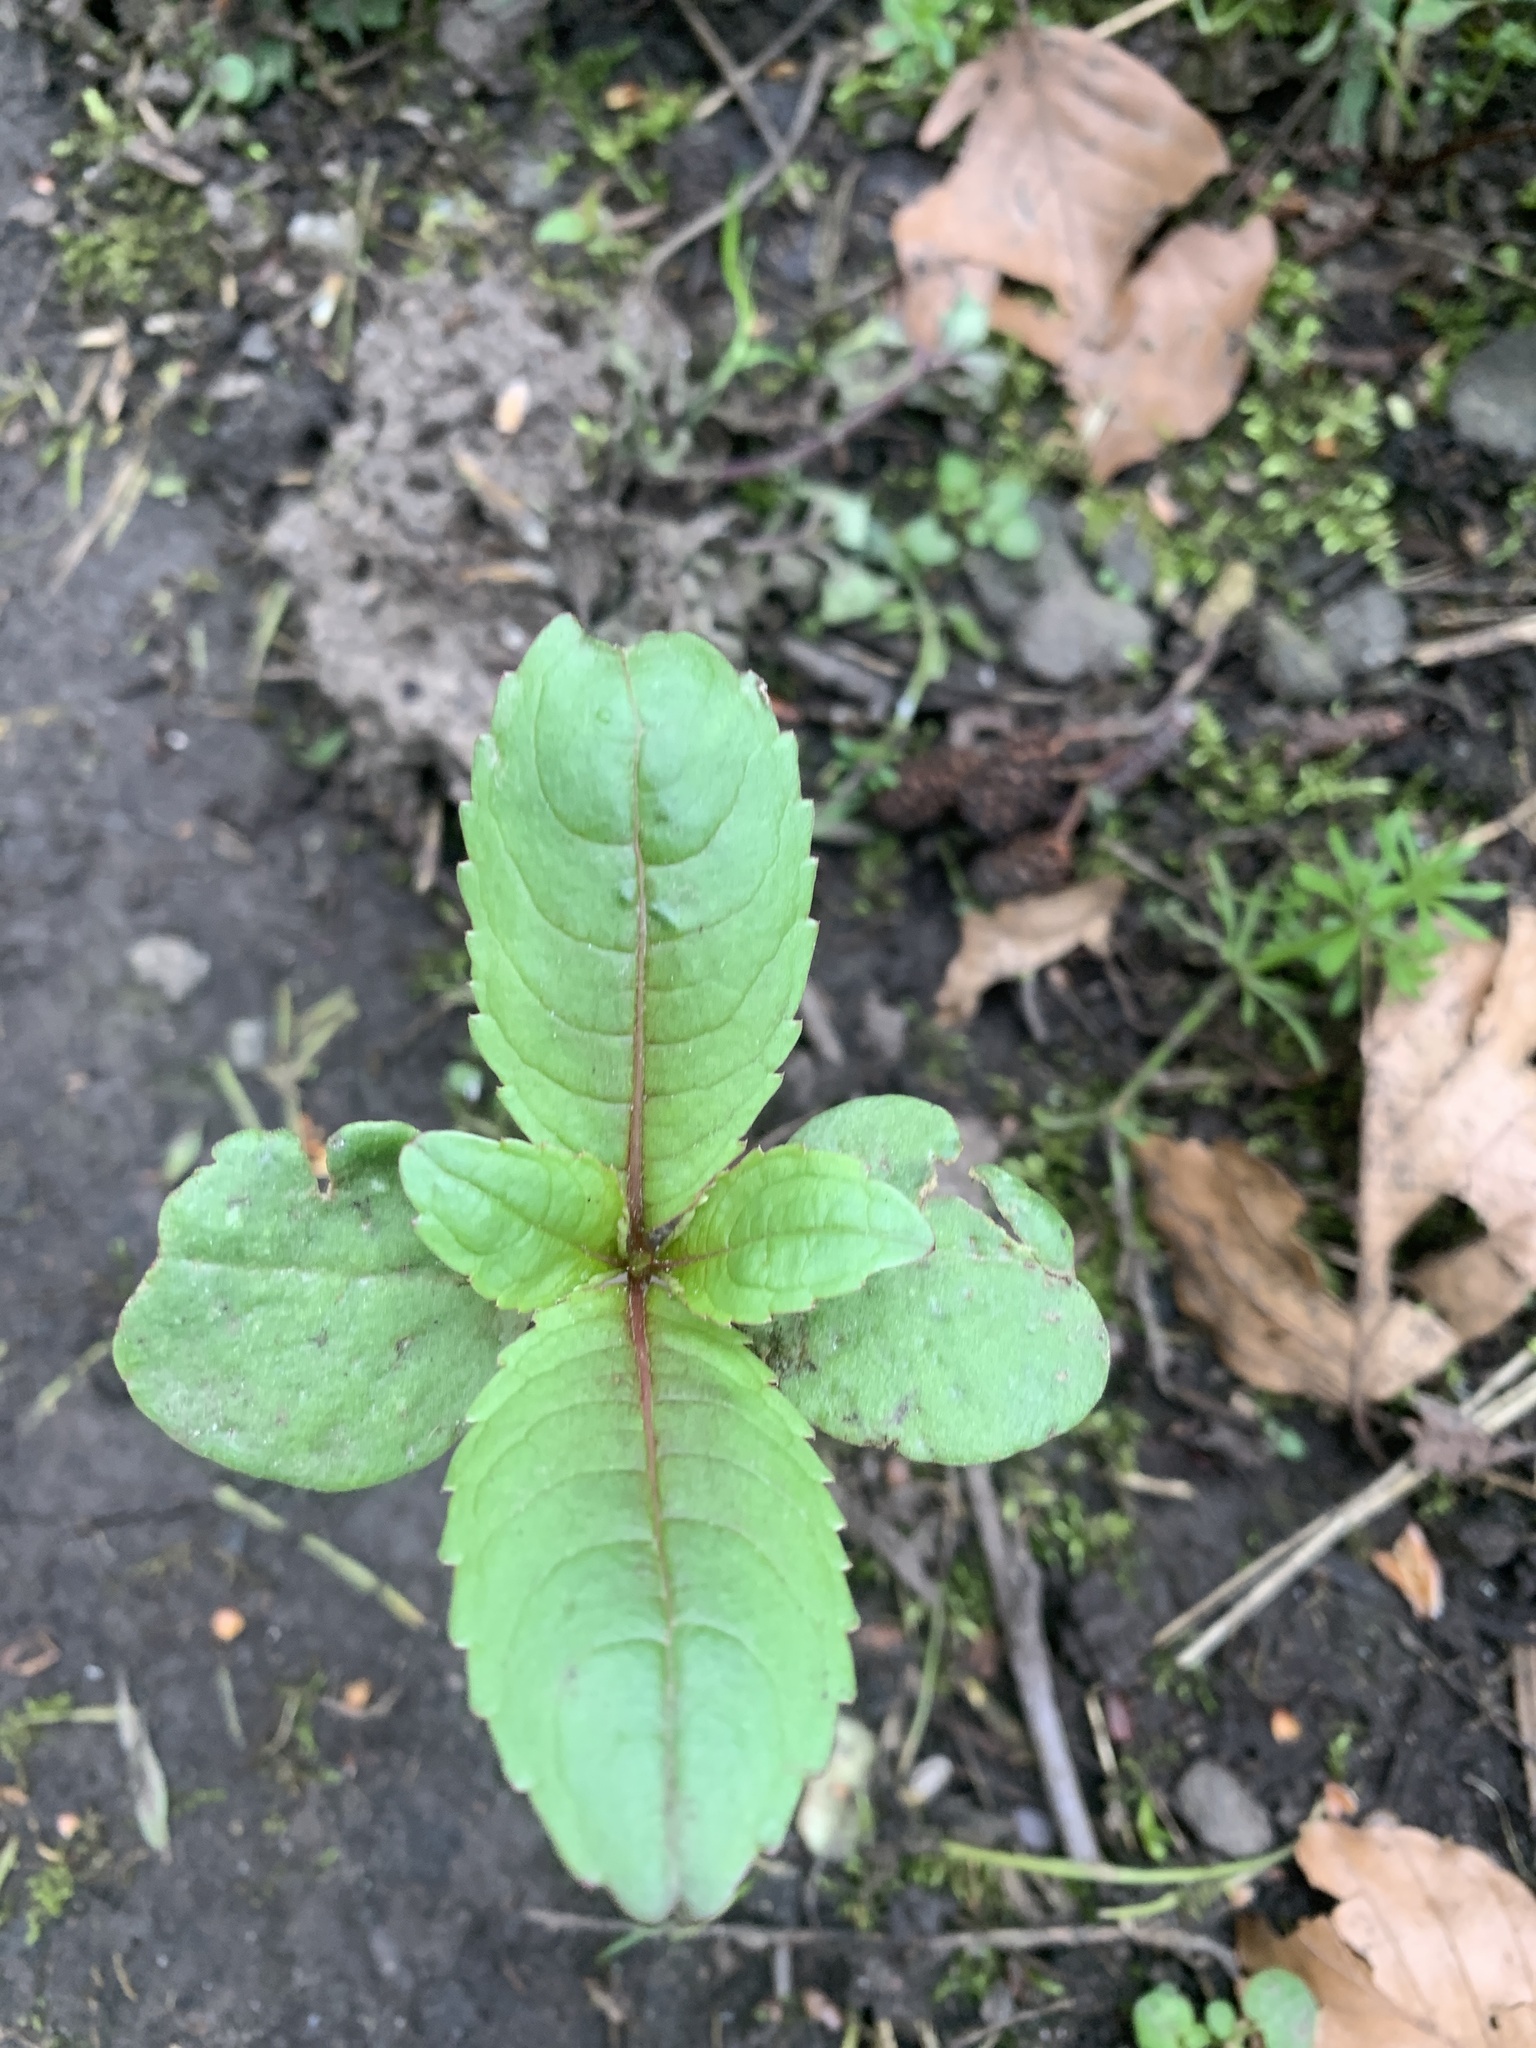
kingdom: Plantae
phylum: Tracheophyta
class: Magnoliopsida
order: Ericales
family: Balsaminaceae
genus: Impatiens
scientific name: Impatiens glandulifera
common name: Himalayan balsam
